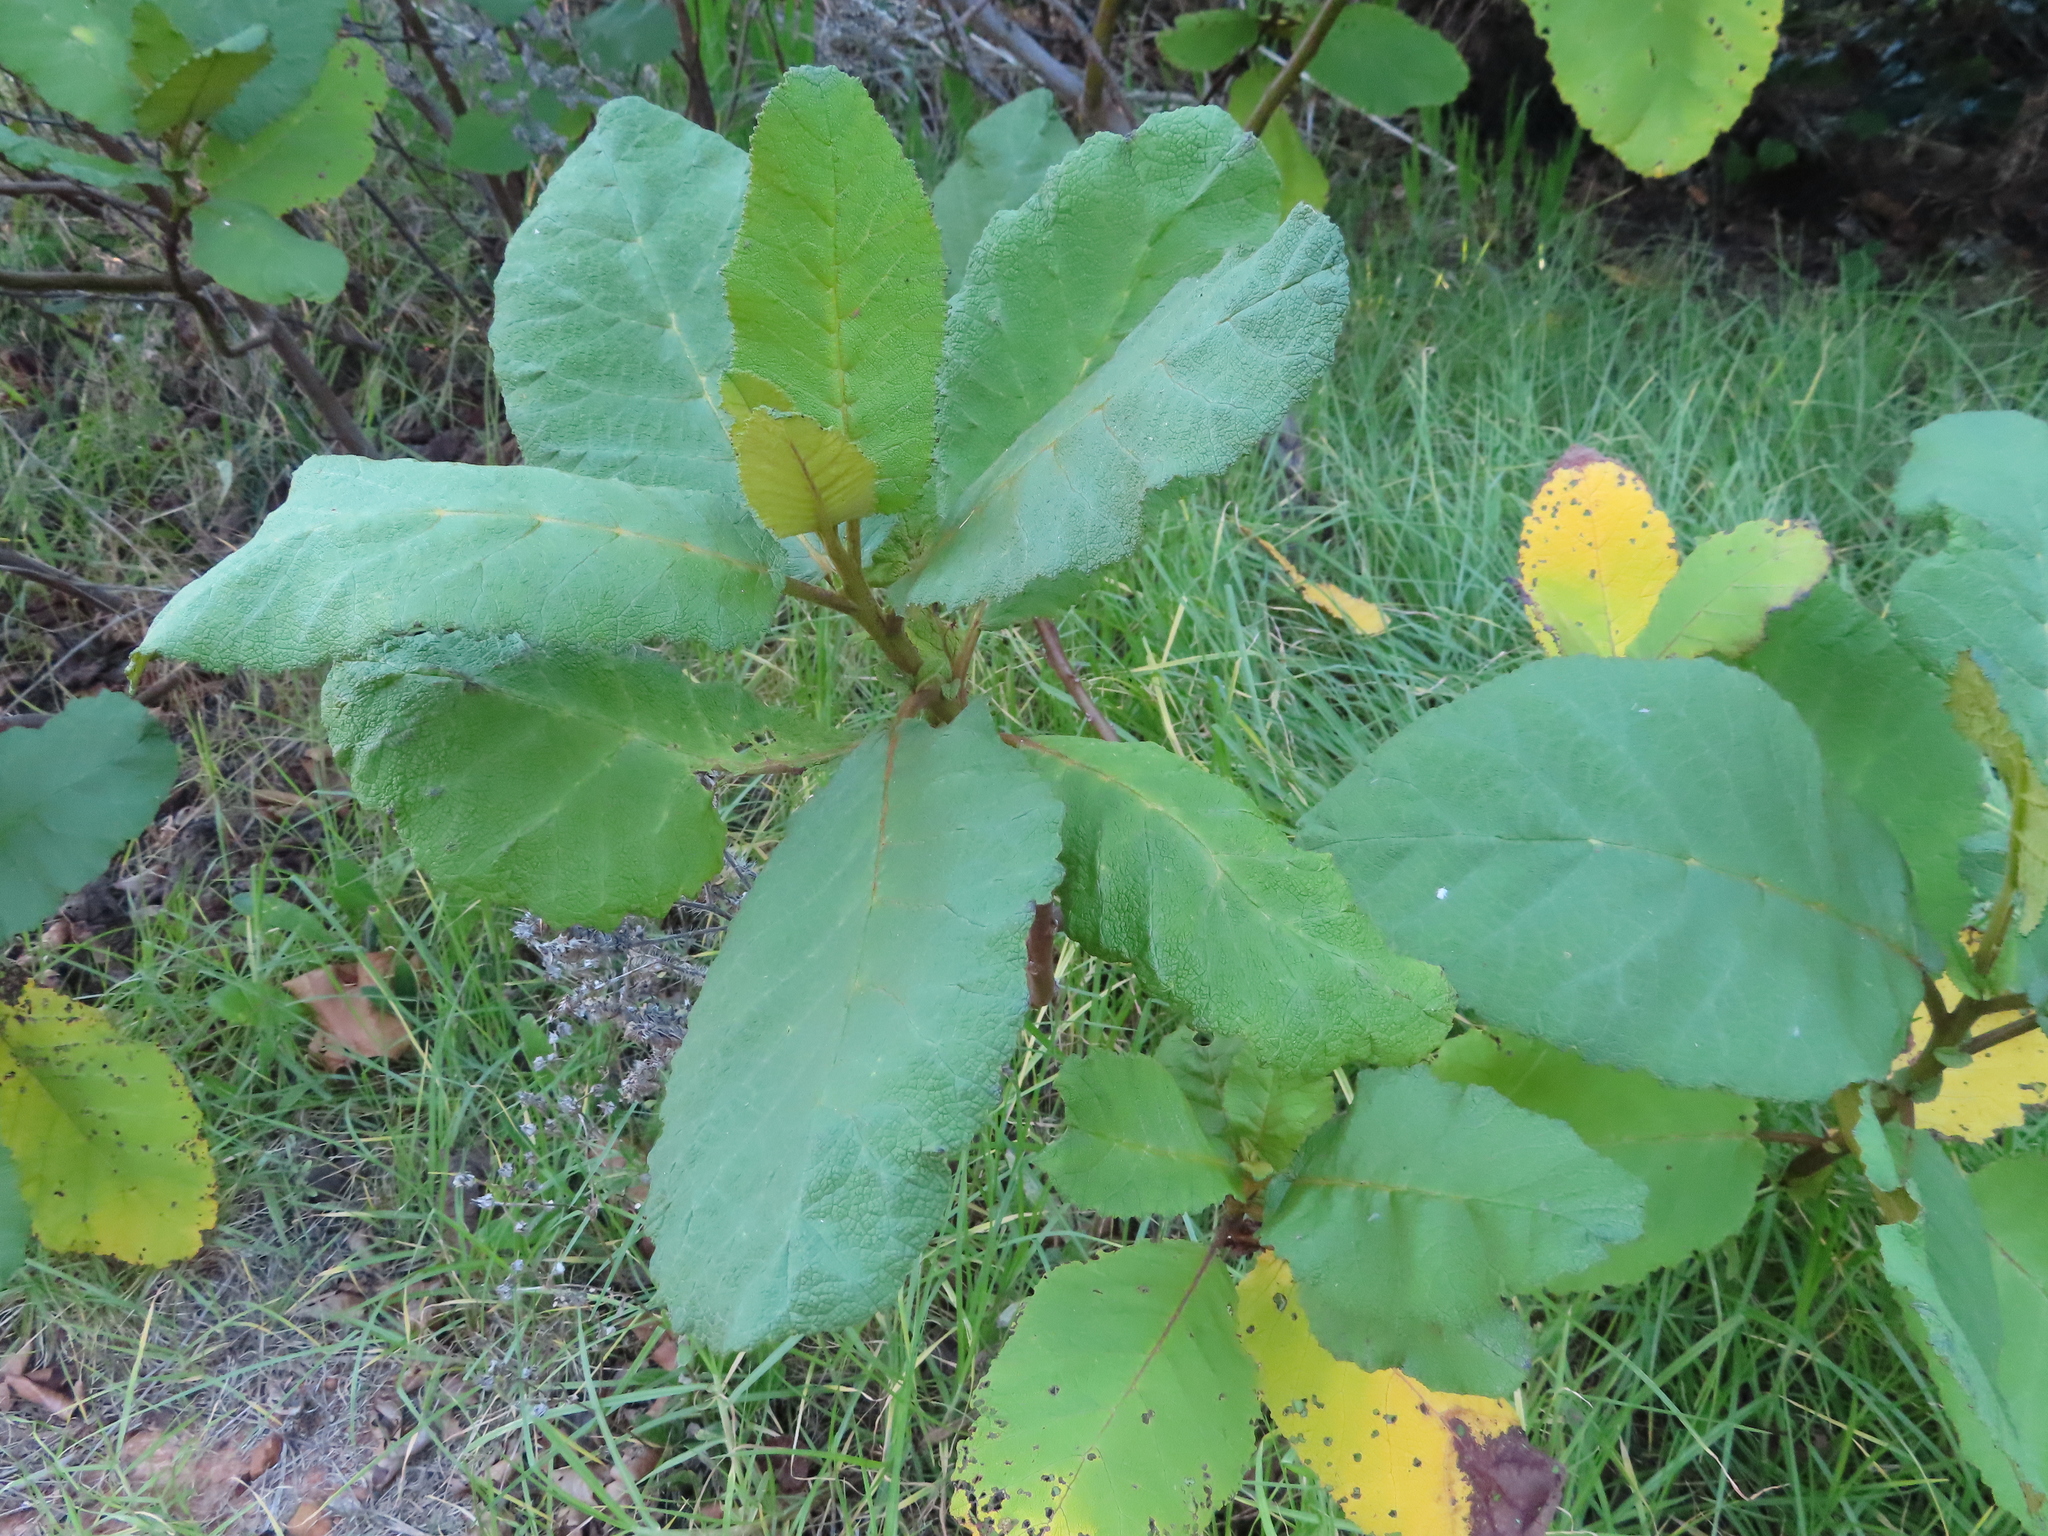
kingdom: Plantae
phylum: Tracheophyta
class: Magnoliopsida
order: Boraginales
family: Namaceae
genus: Wigandia
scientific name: Wigandia urens
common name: Caracus wigandia
